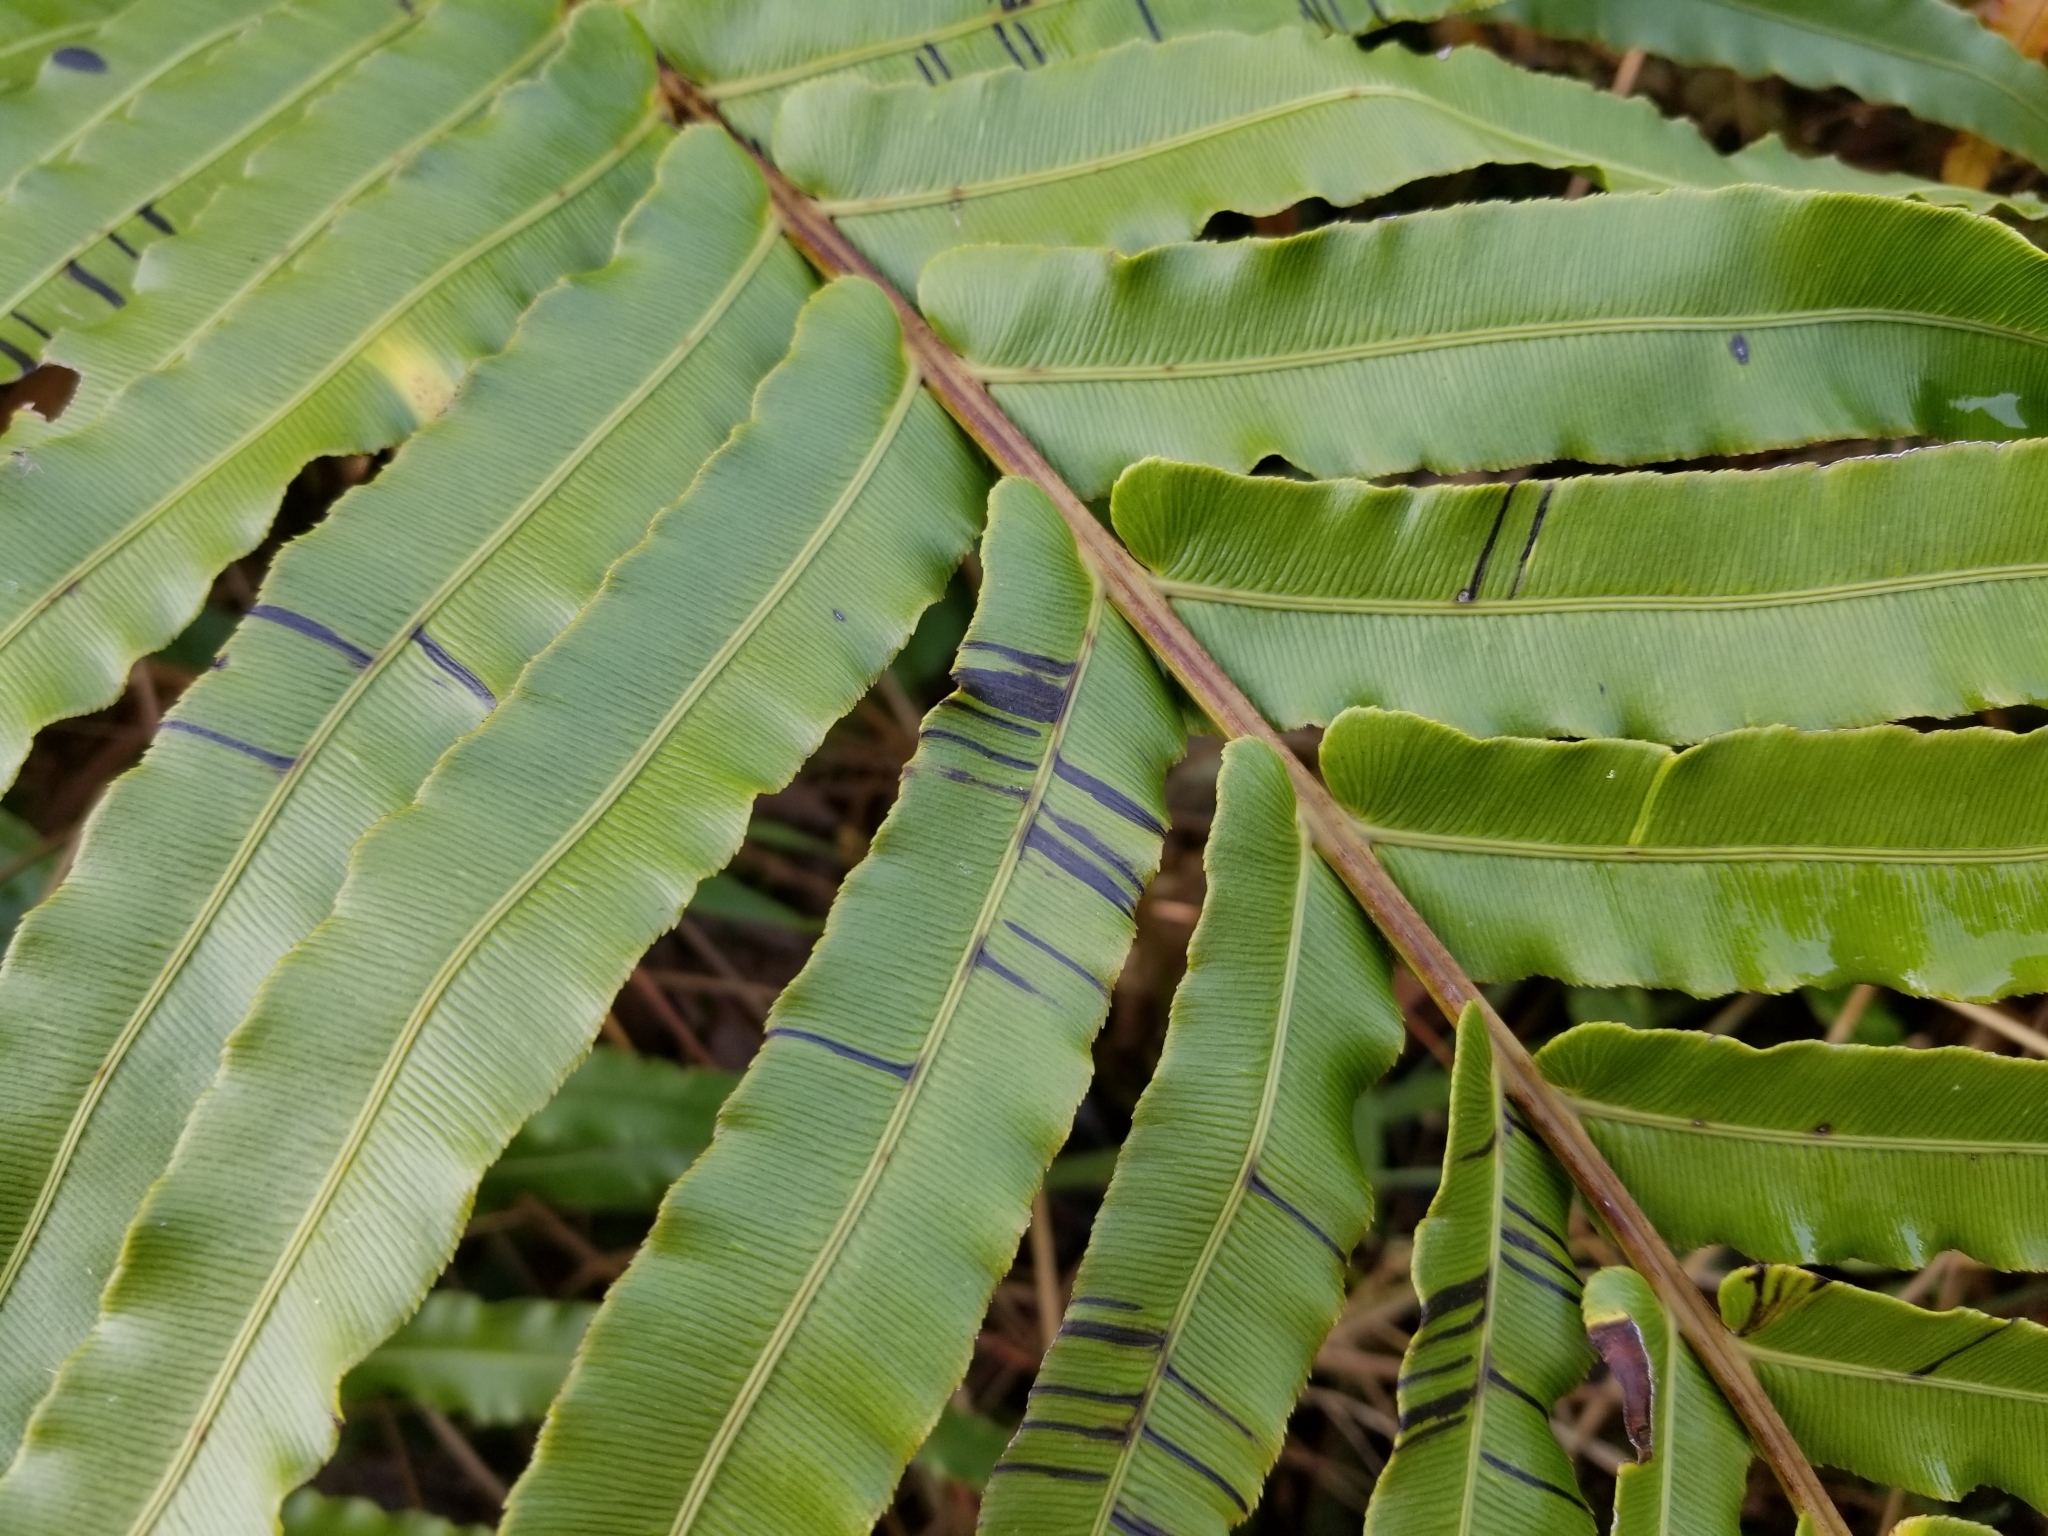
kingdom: Plantae
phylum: Tracheophyta
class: Polypodiopsida
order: Polypodiales
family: Blechnaceae
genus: Parablechnum
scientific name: Parablechnum novae-zelandiae
